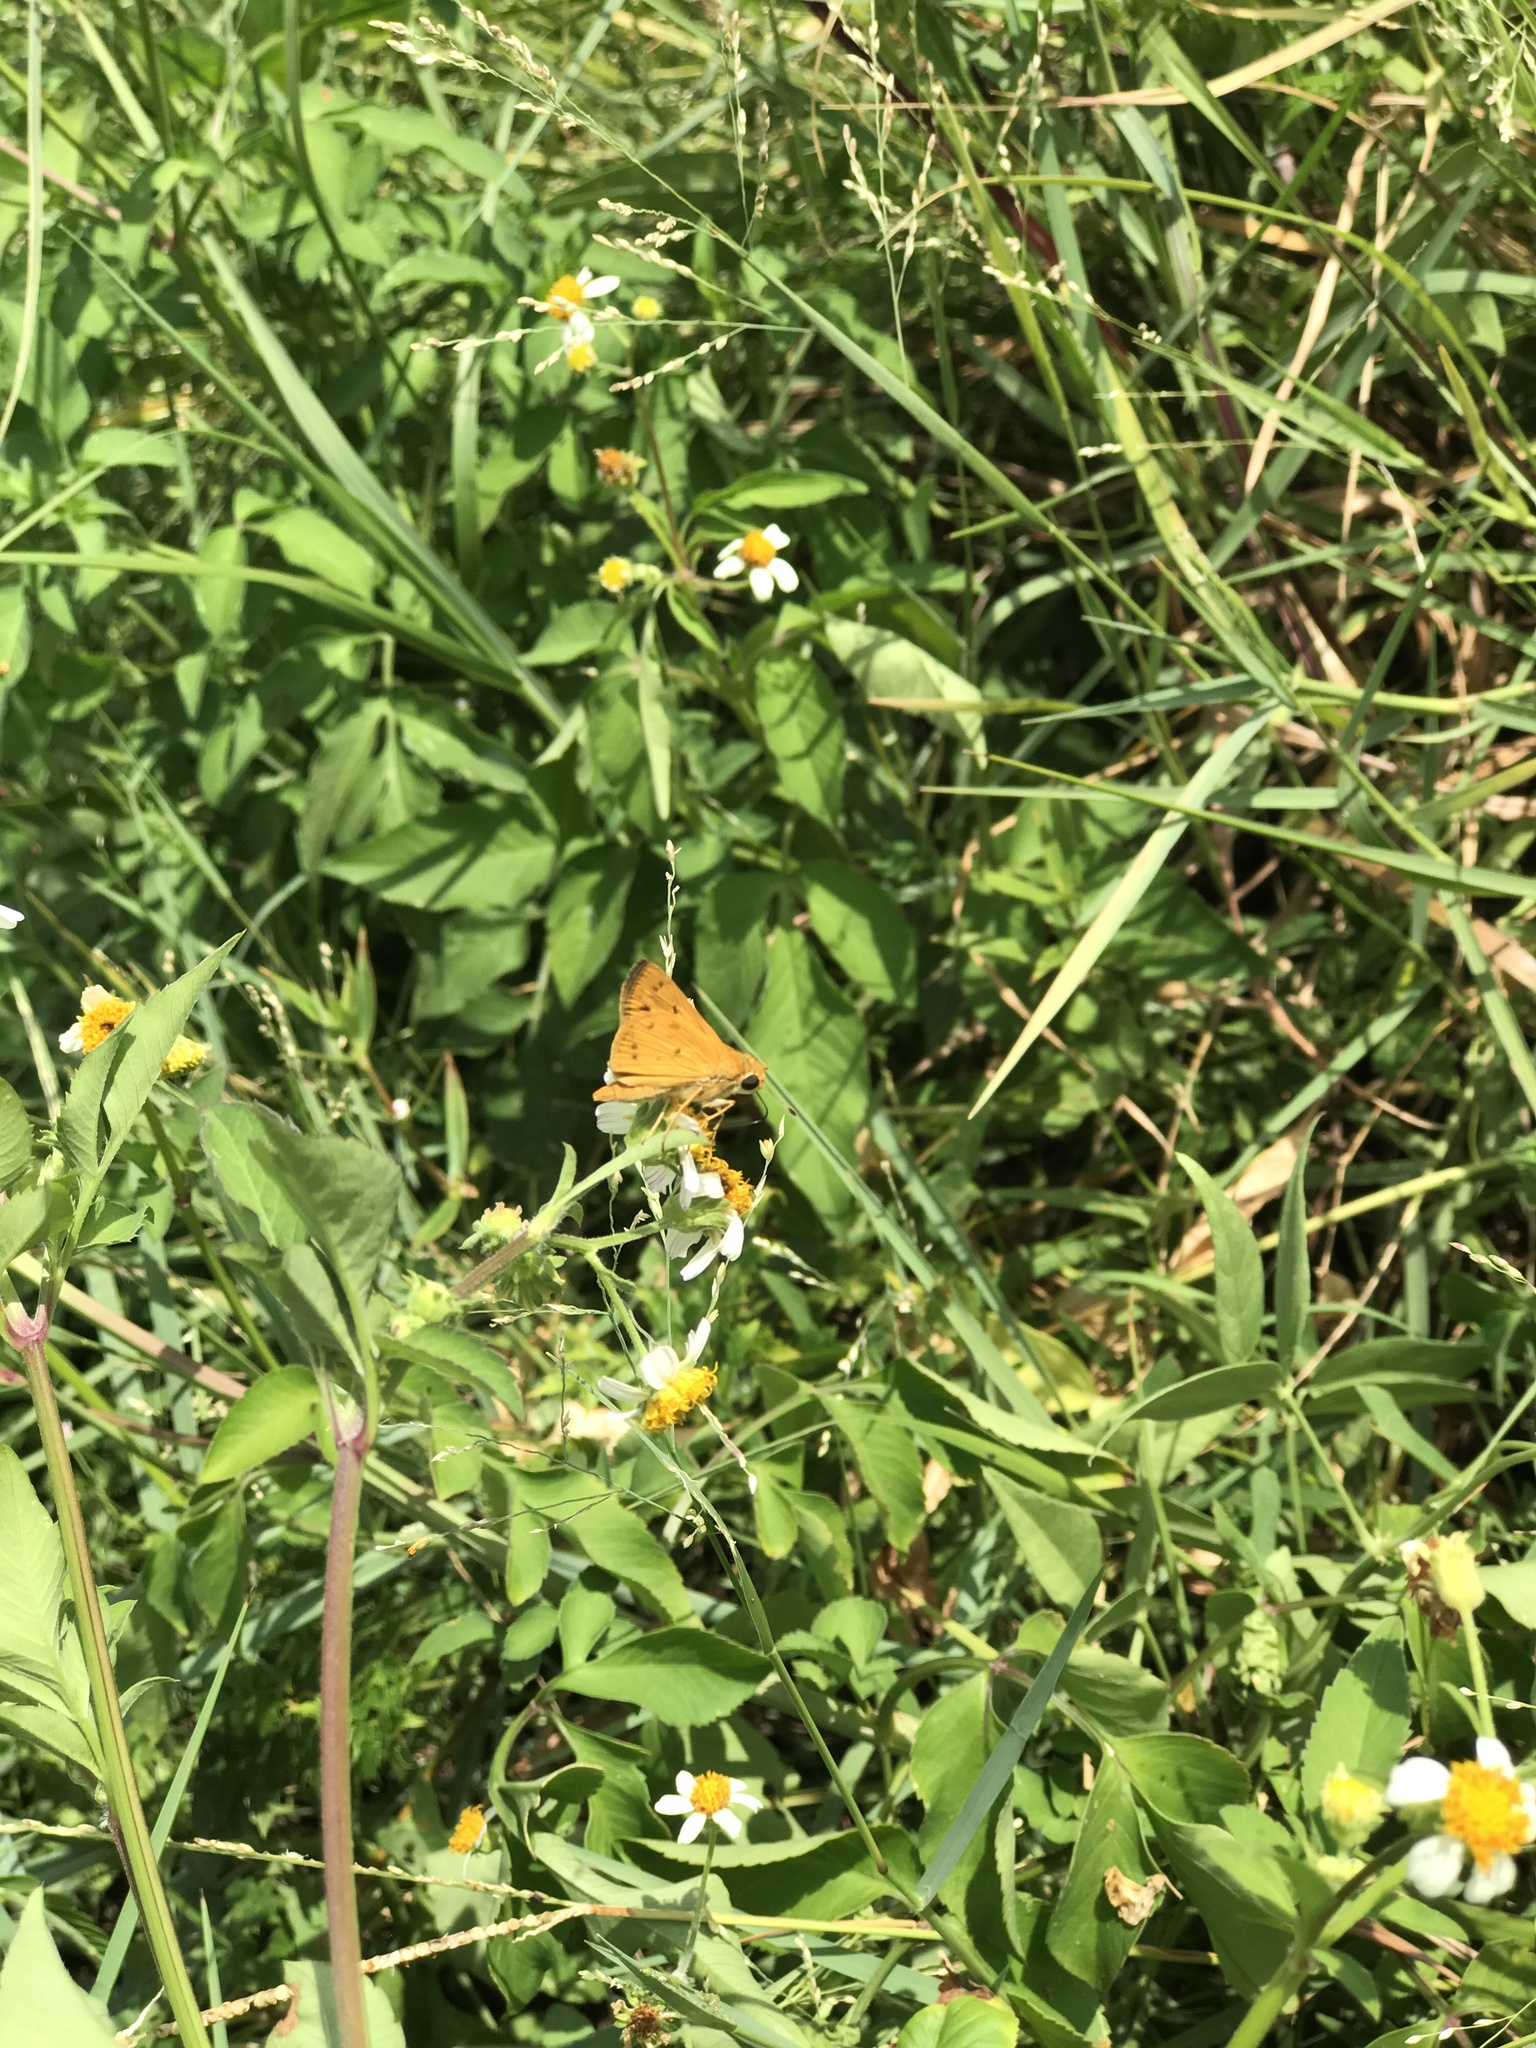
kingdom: Animalia
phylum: Arthropoda
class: Insecta
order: Lepidoptera
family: Hesperiidae
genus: Hylephila
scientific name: Hylephila phyleus
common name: Fiery skipper
